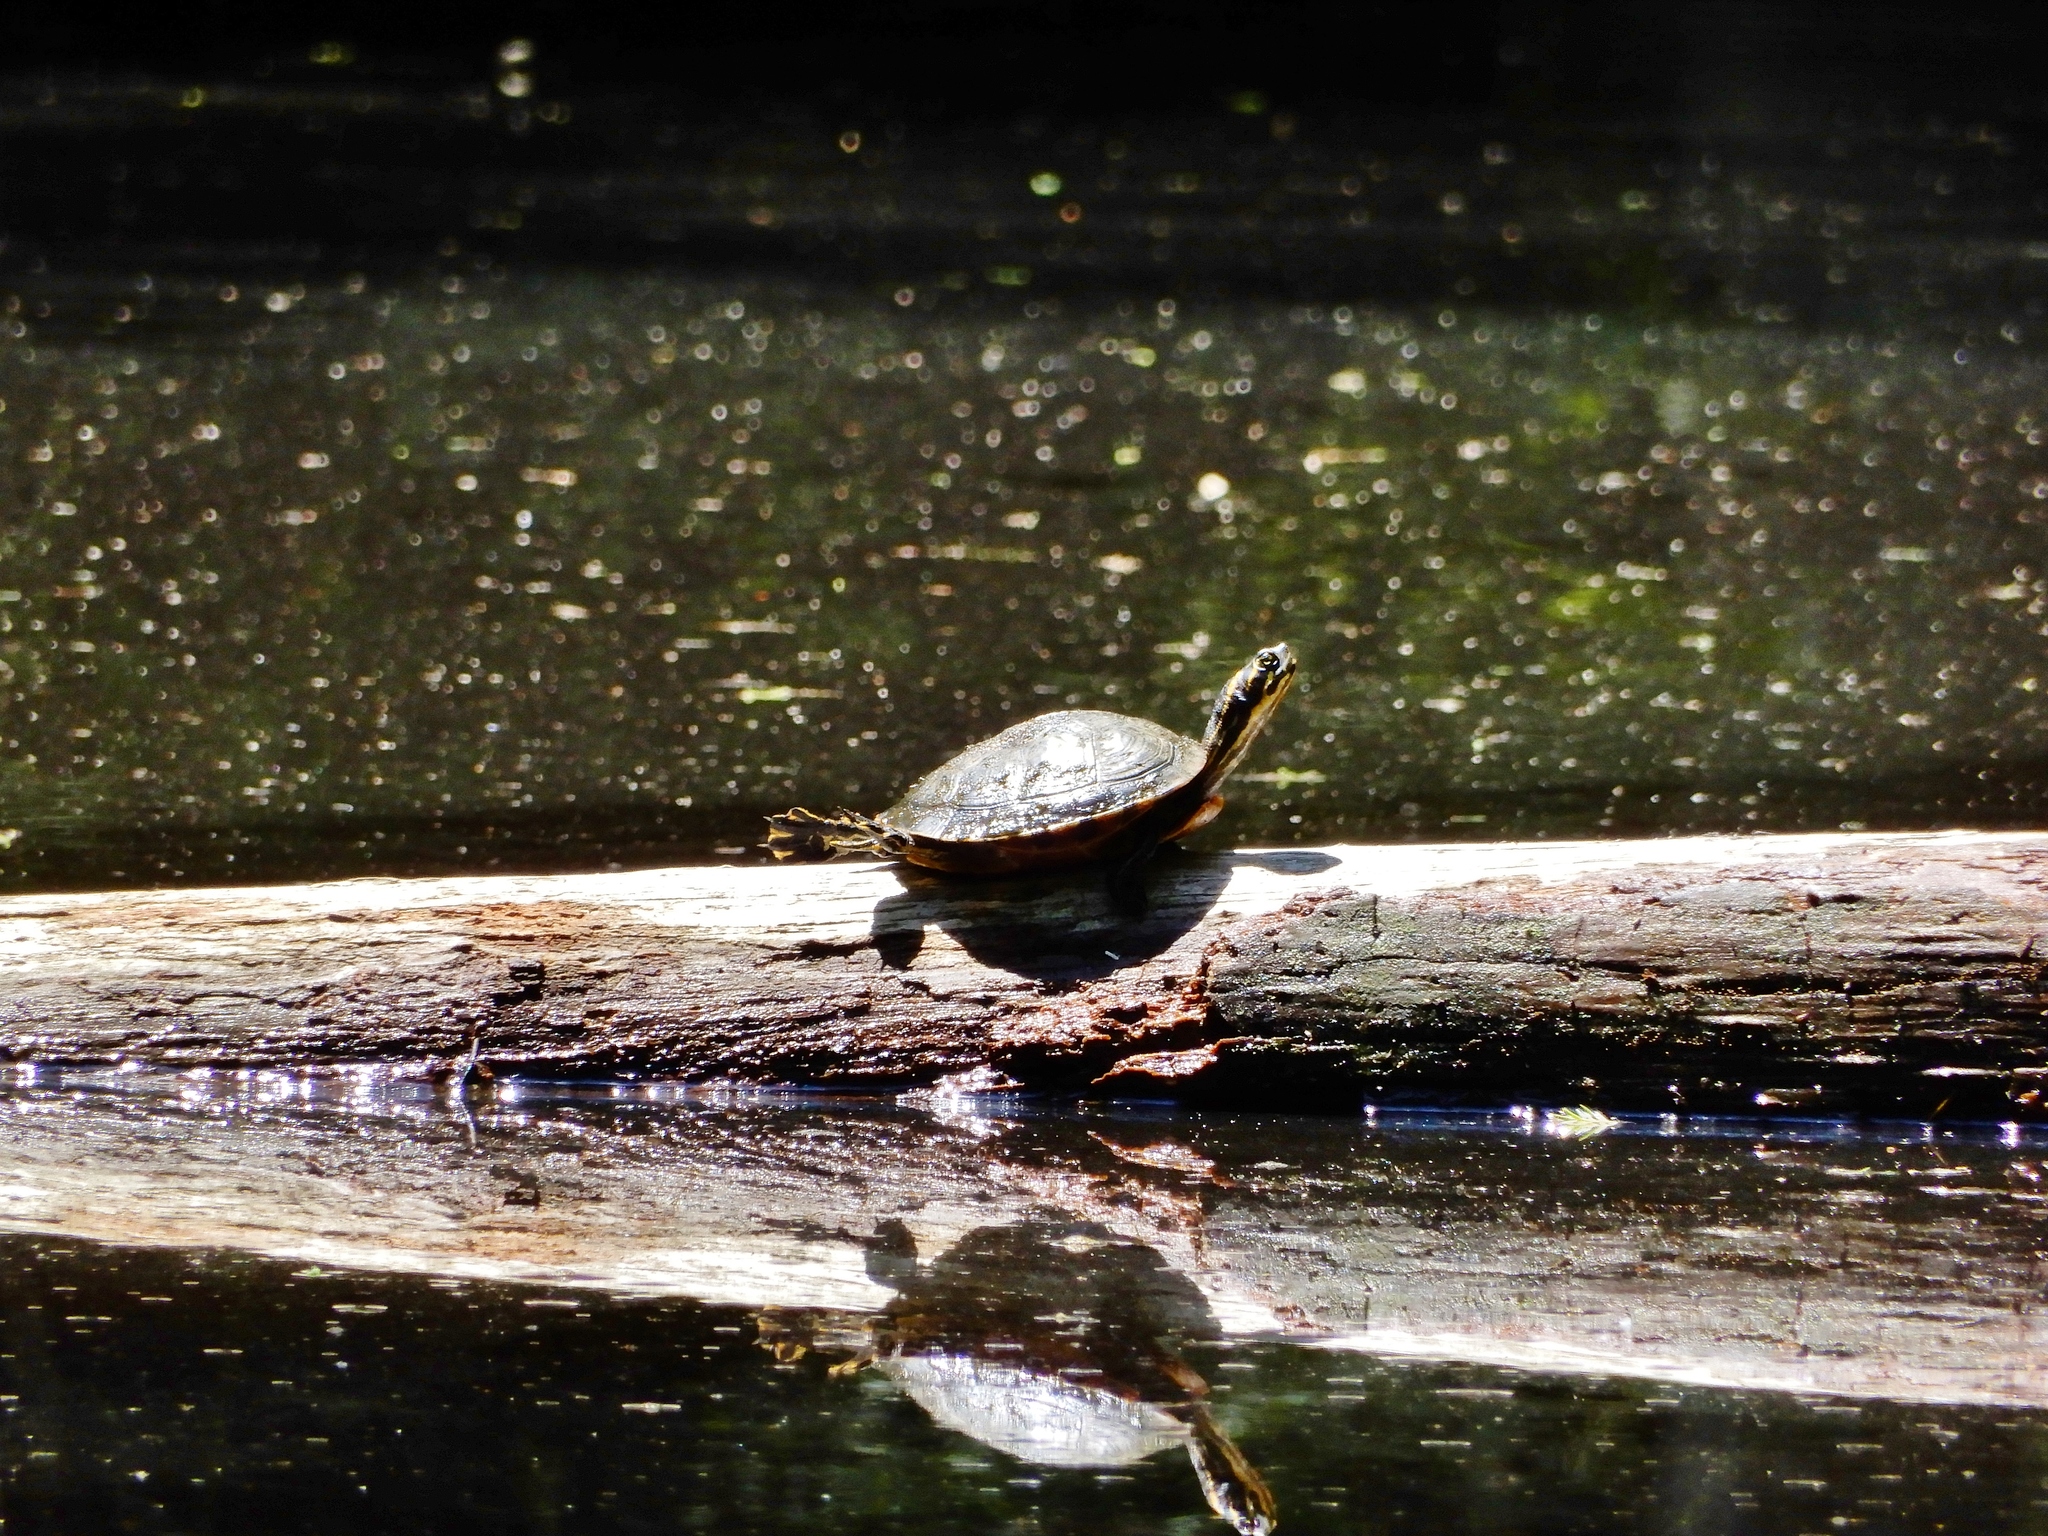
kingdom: Animalia
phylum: Chordata
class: Testudines
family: Emydidae
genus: Trachemys
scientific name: Trachemys scripta
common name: Slider
